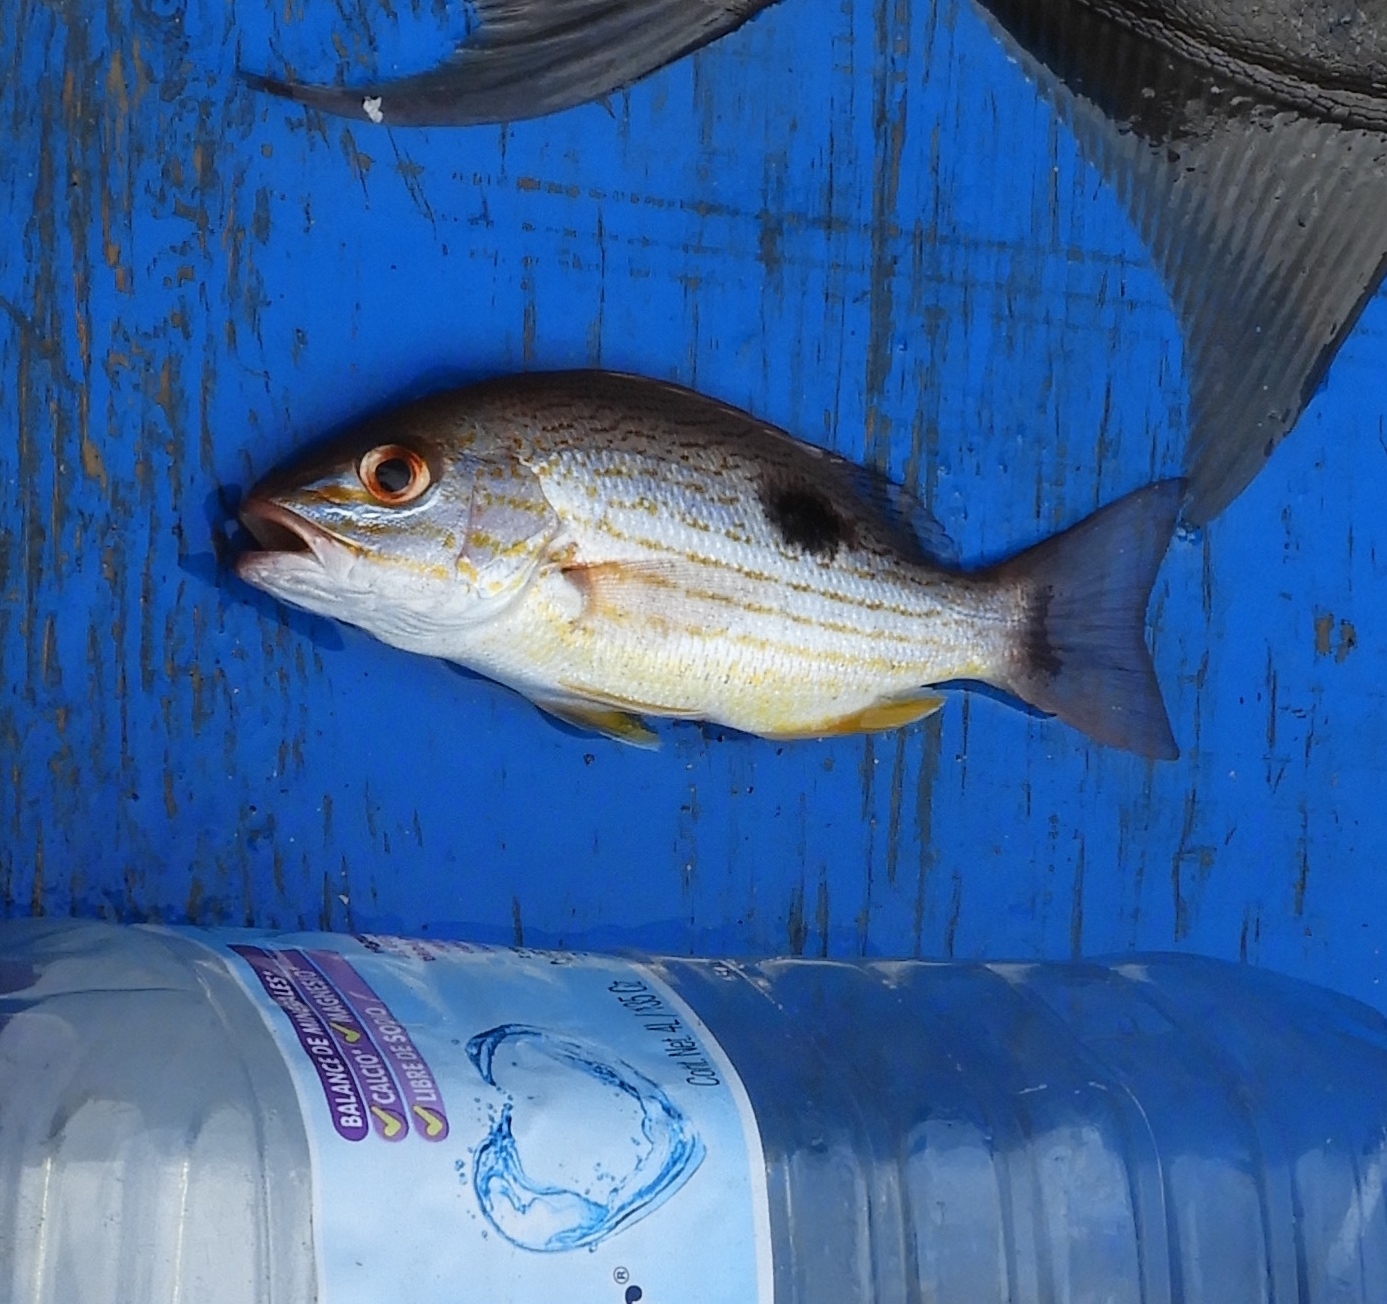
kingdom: Animalia
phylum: Chordata
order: Perciformes
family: Lutjanidae
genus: Lutjanus
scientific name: Lutjanus guttatus
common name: Spotted rose snapper
